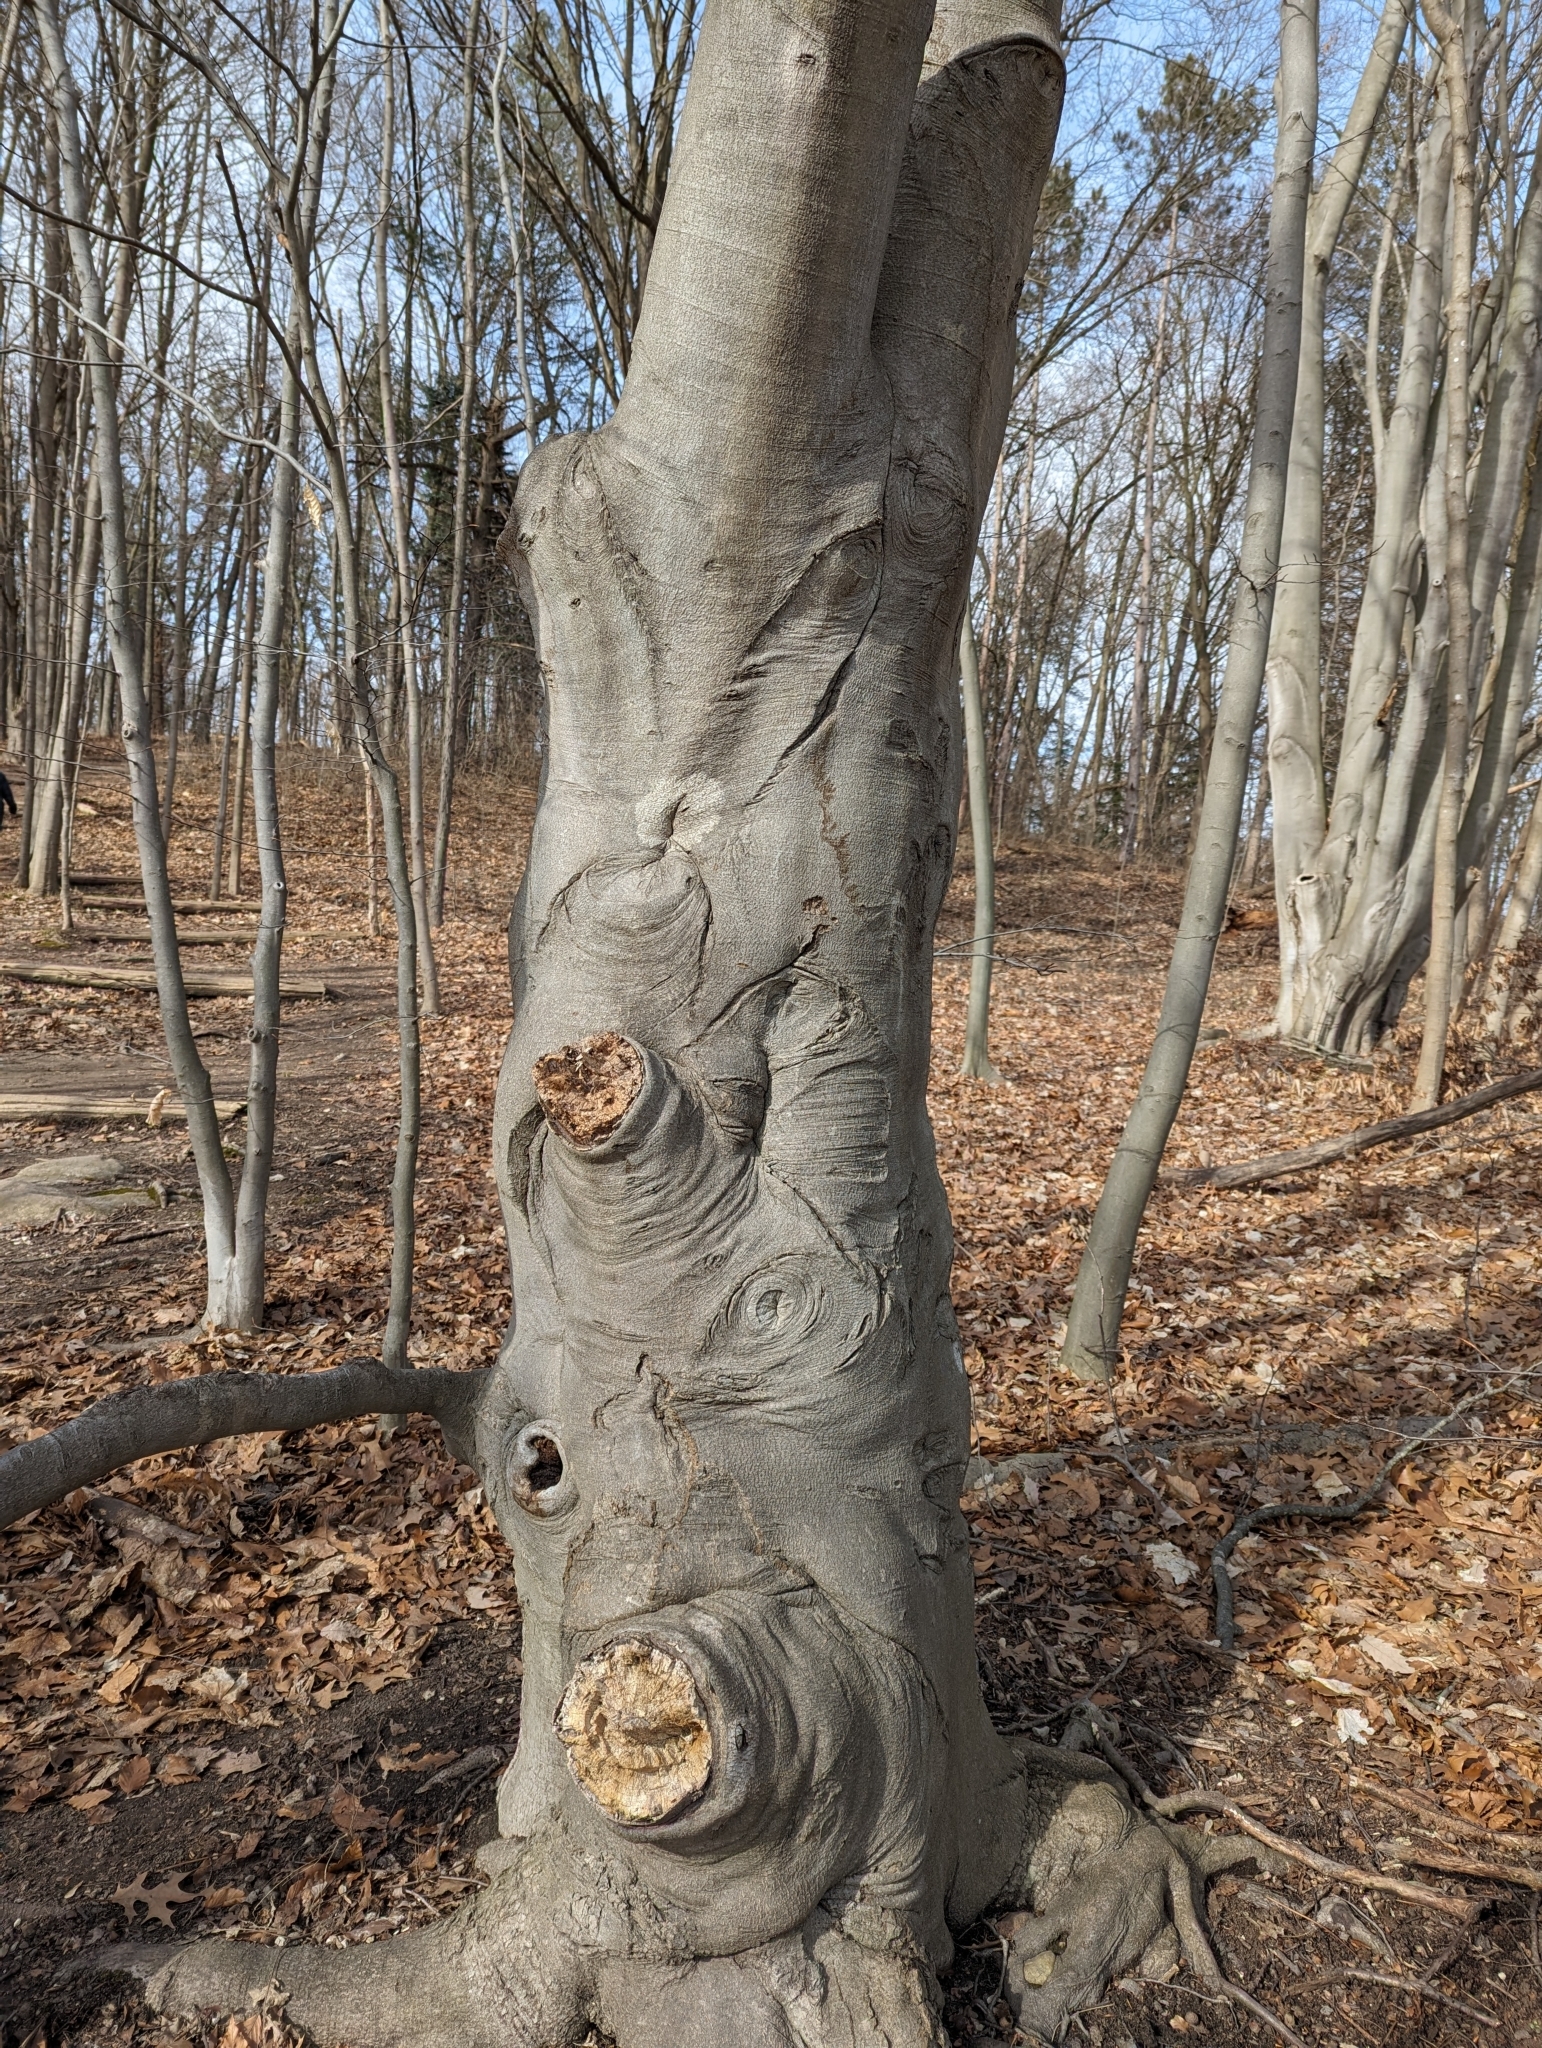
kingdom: Plantae
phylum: Tracheophyta
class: Magnoliopsida
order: Fagales
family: Fagaceae
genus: Fagus
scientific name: Fagus grandifolia
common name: American beech
